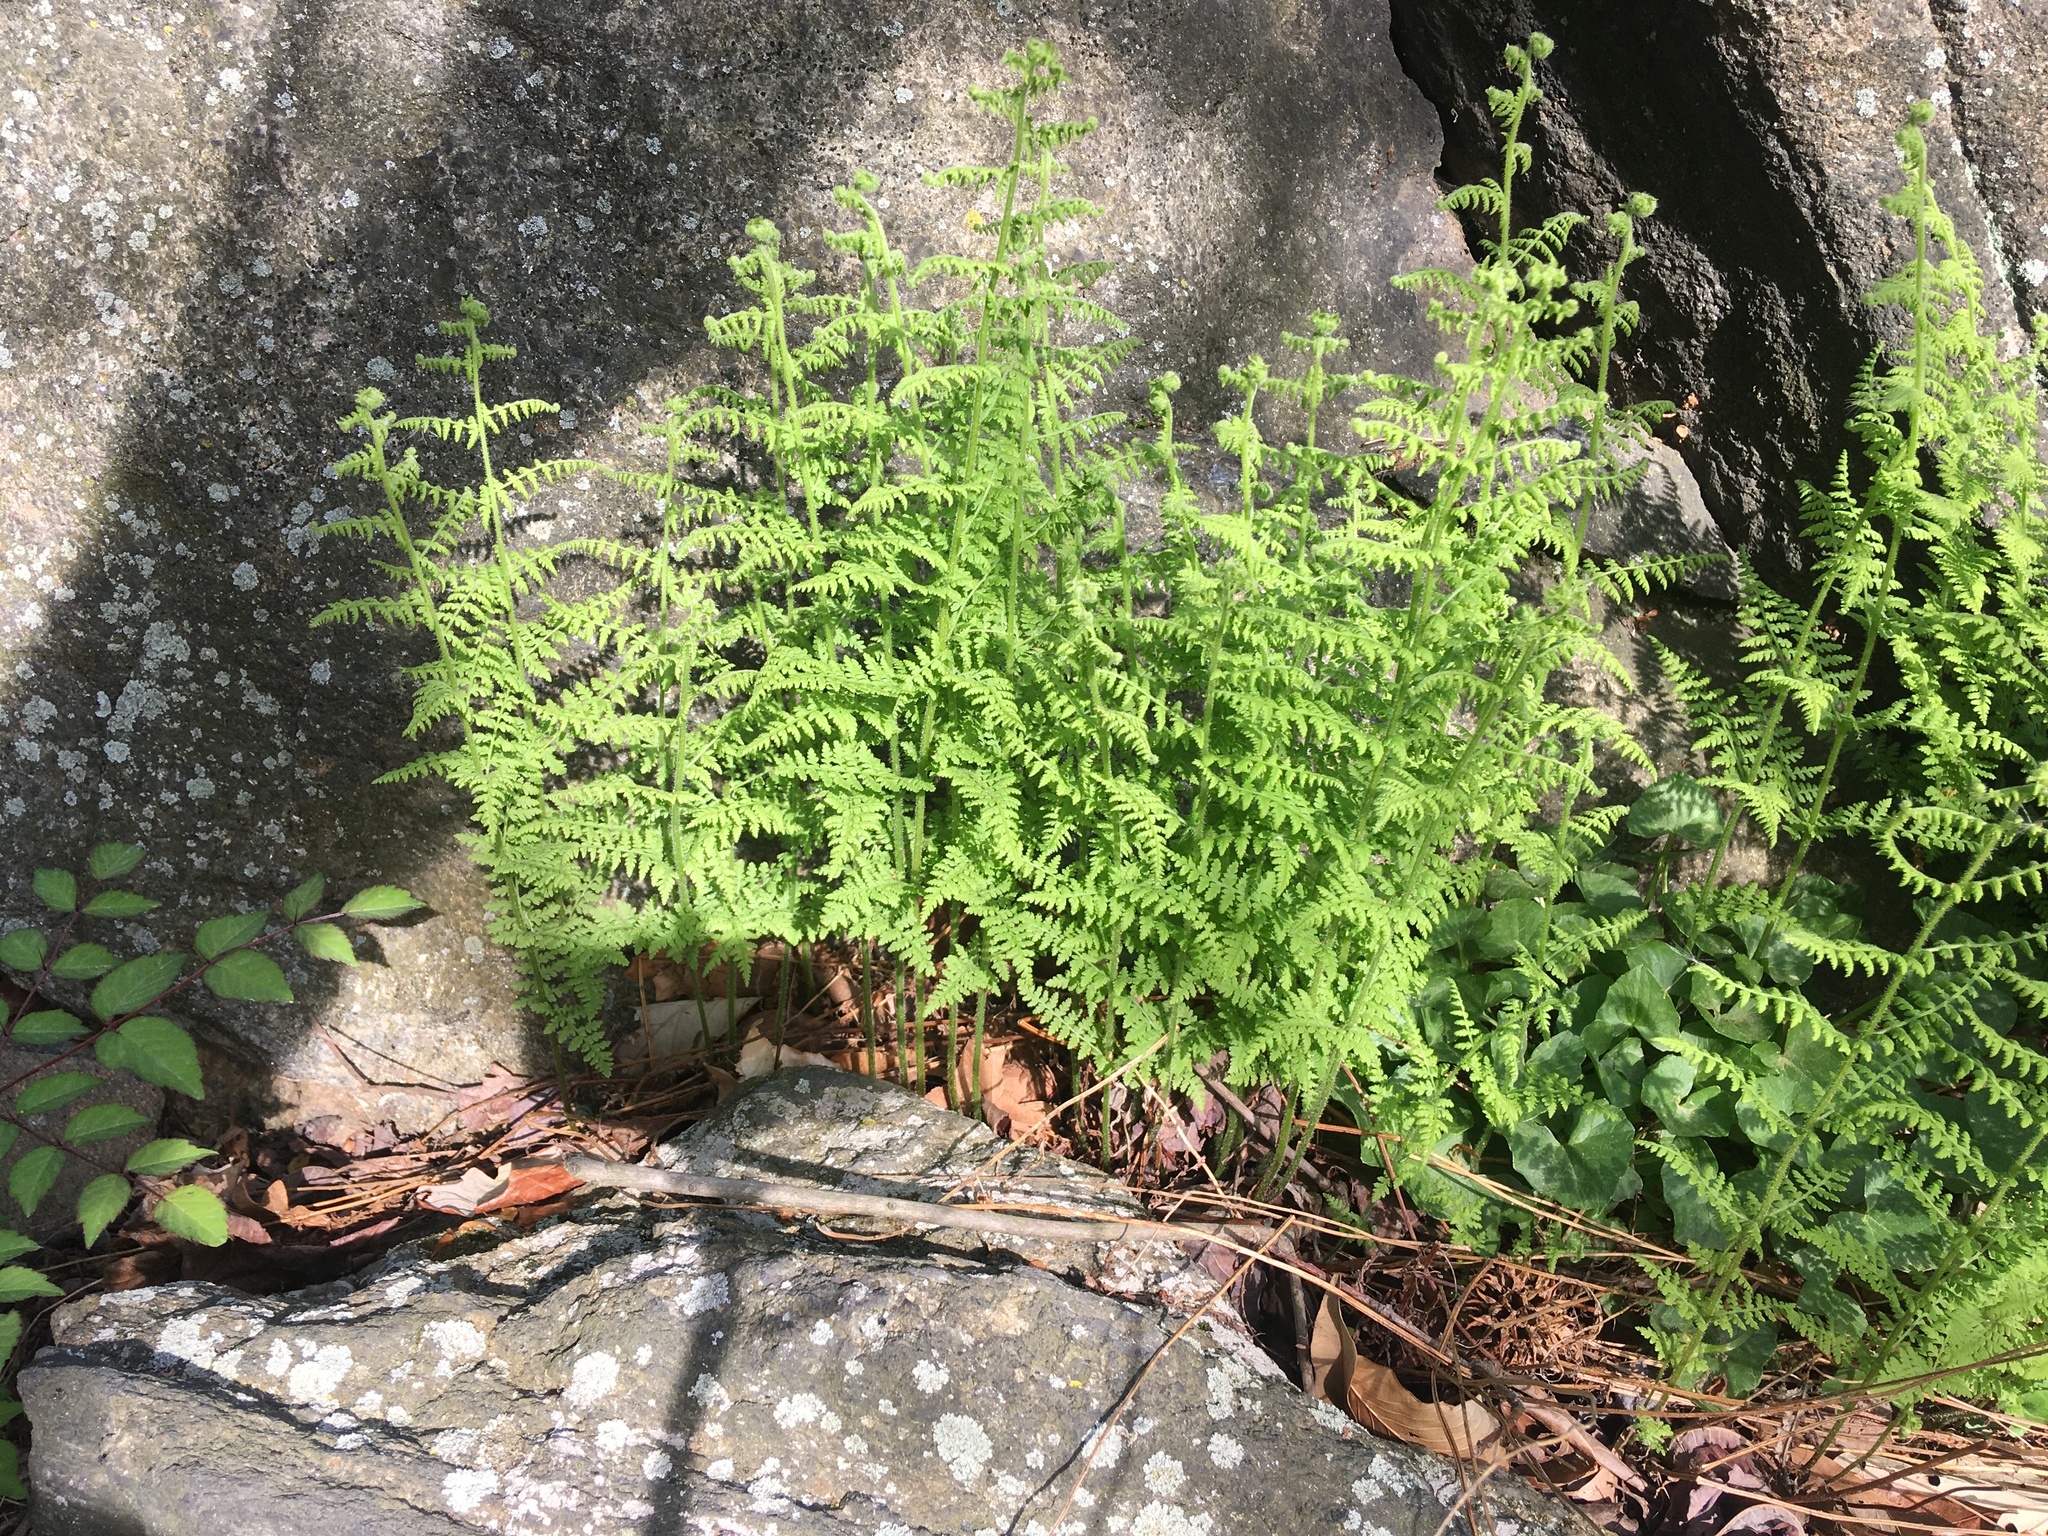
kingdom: Plantae
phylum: Tracheophyta
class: Polypodiopsida
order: Polypodiales
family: Dennstaedtiaceae
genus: Sitobolium
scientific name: Sitobolium punctilobum
